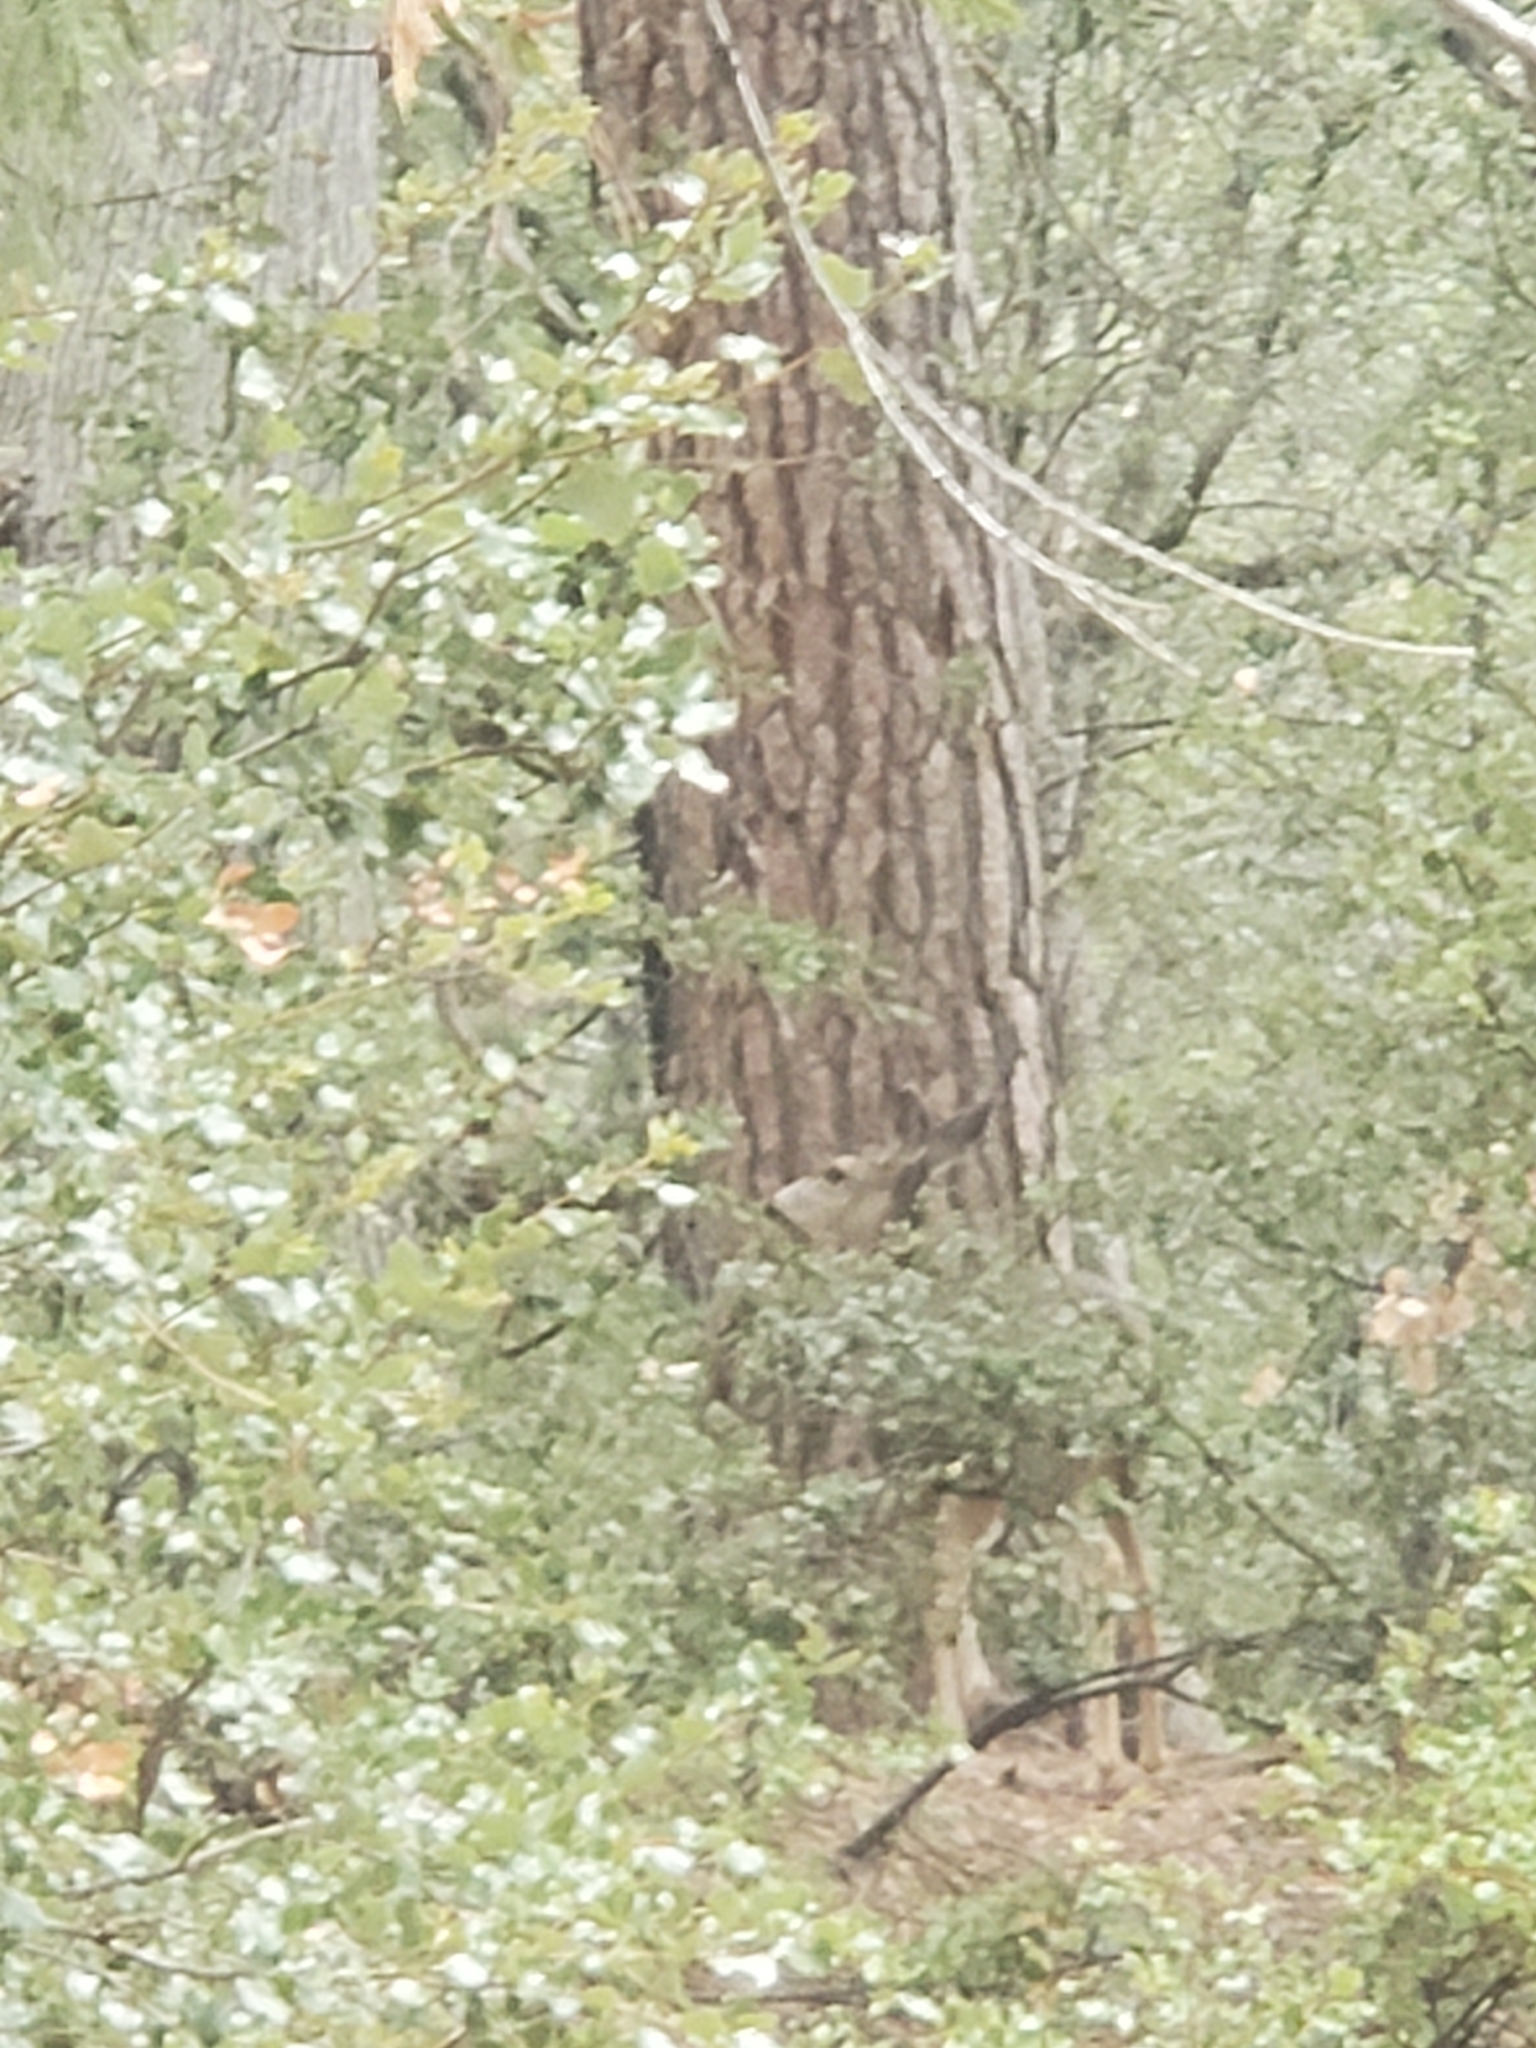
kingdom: Animalia
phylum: Chordata
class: Mammalia
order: Artiodactyla
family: Cervidae
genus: Odocoileus
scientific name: Odocoileus hemionus
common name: Mule deer
